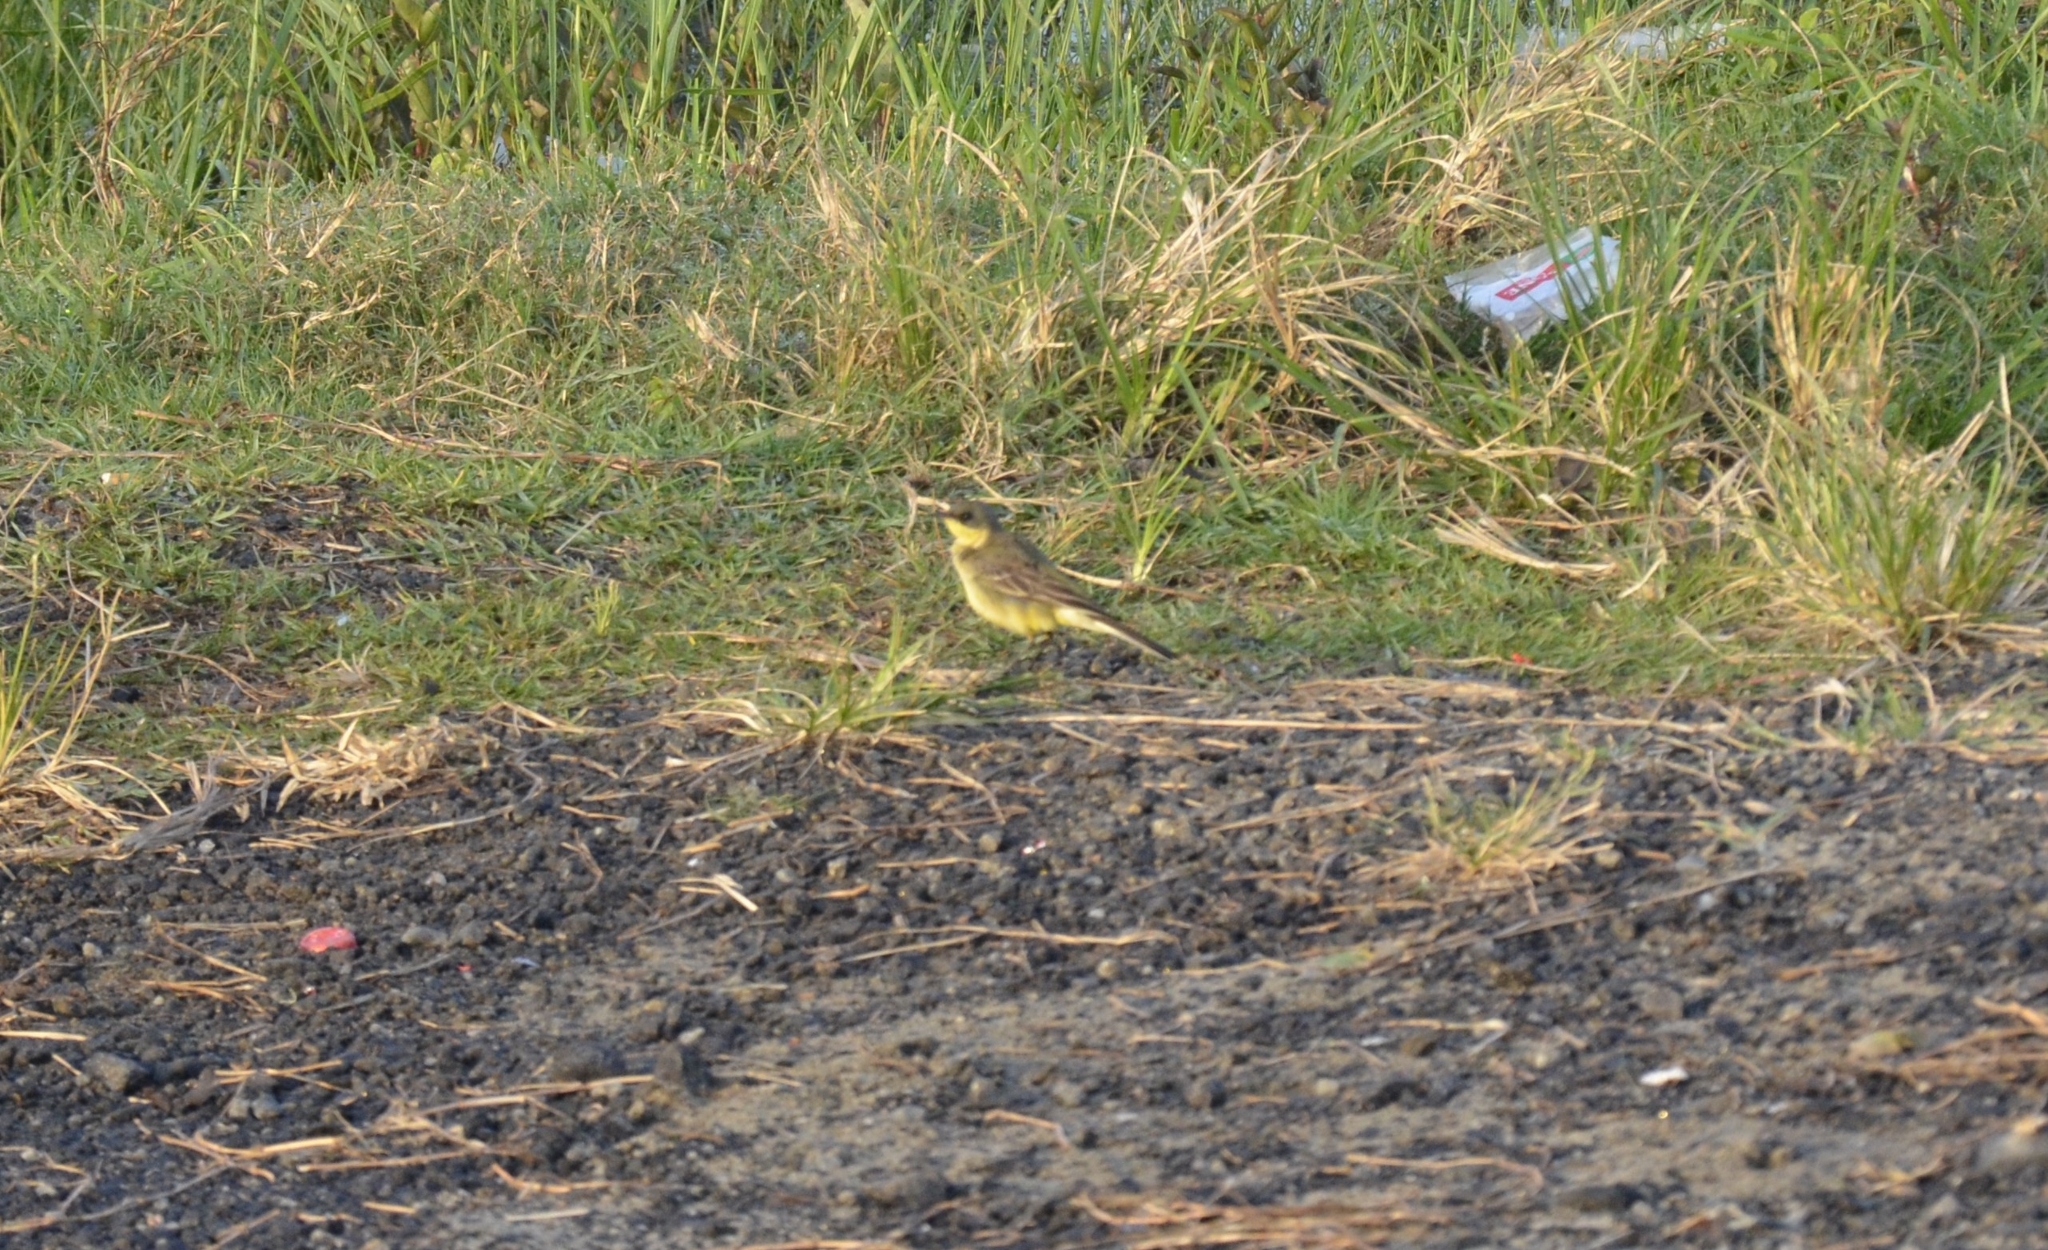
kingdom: Animalia
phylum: Chordata
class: Aves
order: Passeriformes
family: Motacillidae
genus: Motacilla
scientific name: Motacilla flava
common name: Western yellow wagtail
